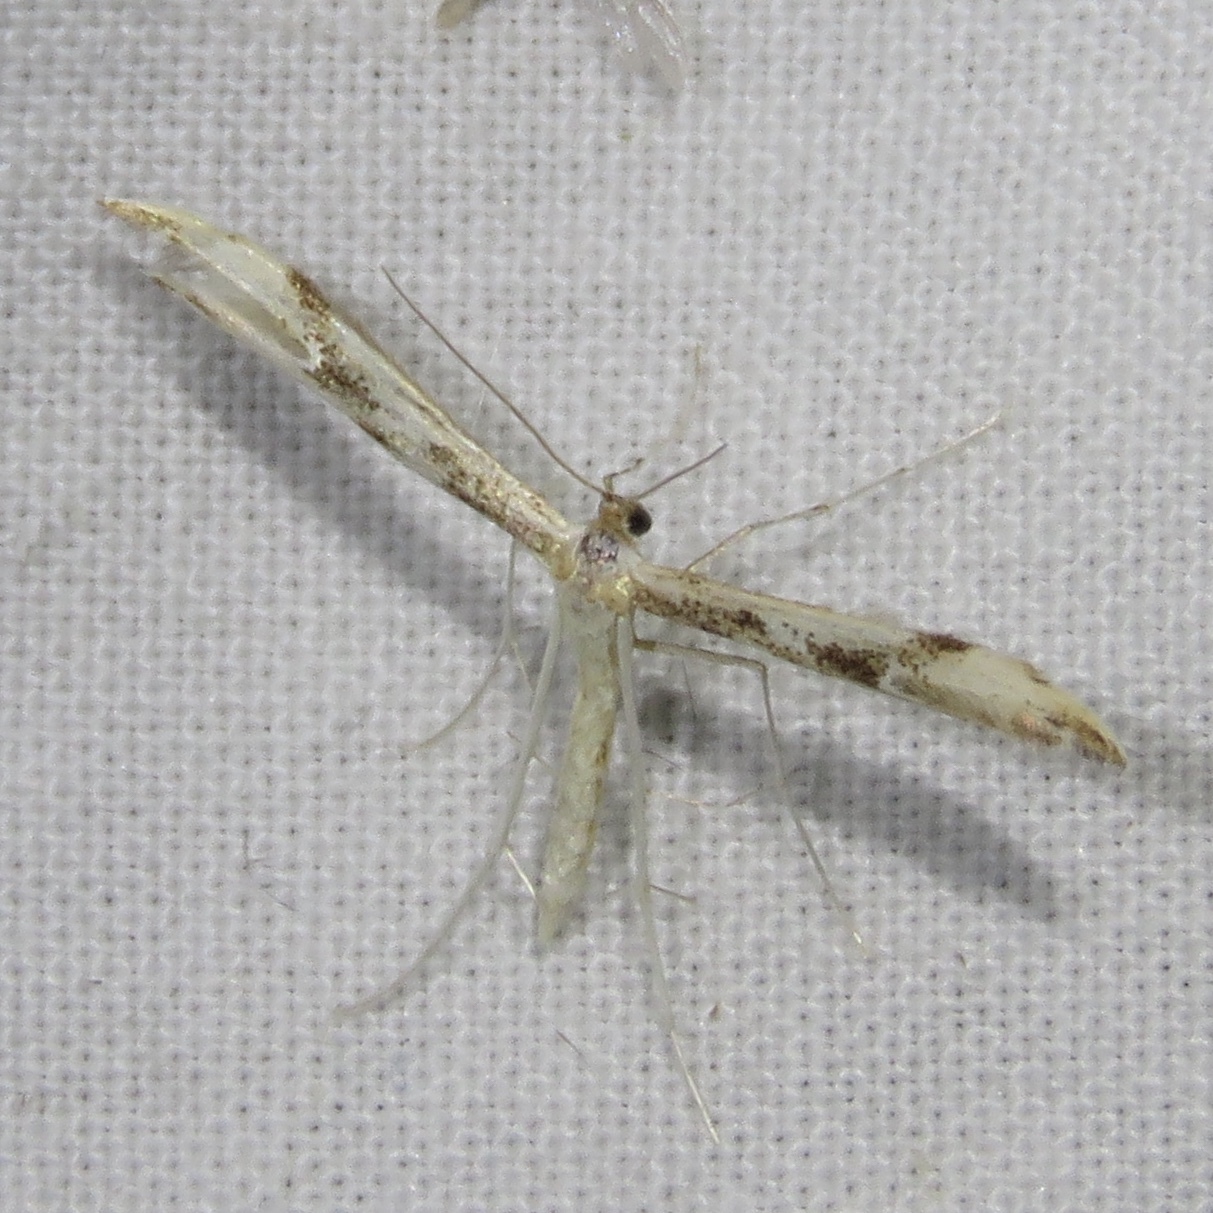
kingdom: Animalia
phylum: Arthropoda
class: Insecta
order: Lepidoptera
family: Pterophoridae
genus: Adaina
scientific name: Adaina montanus
